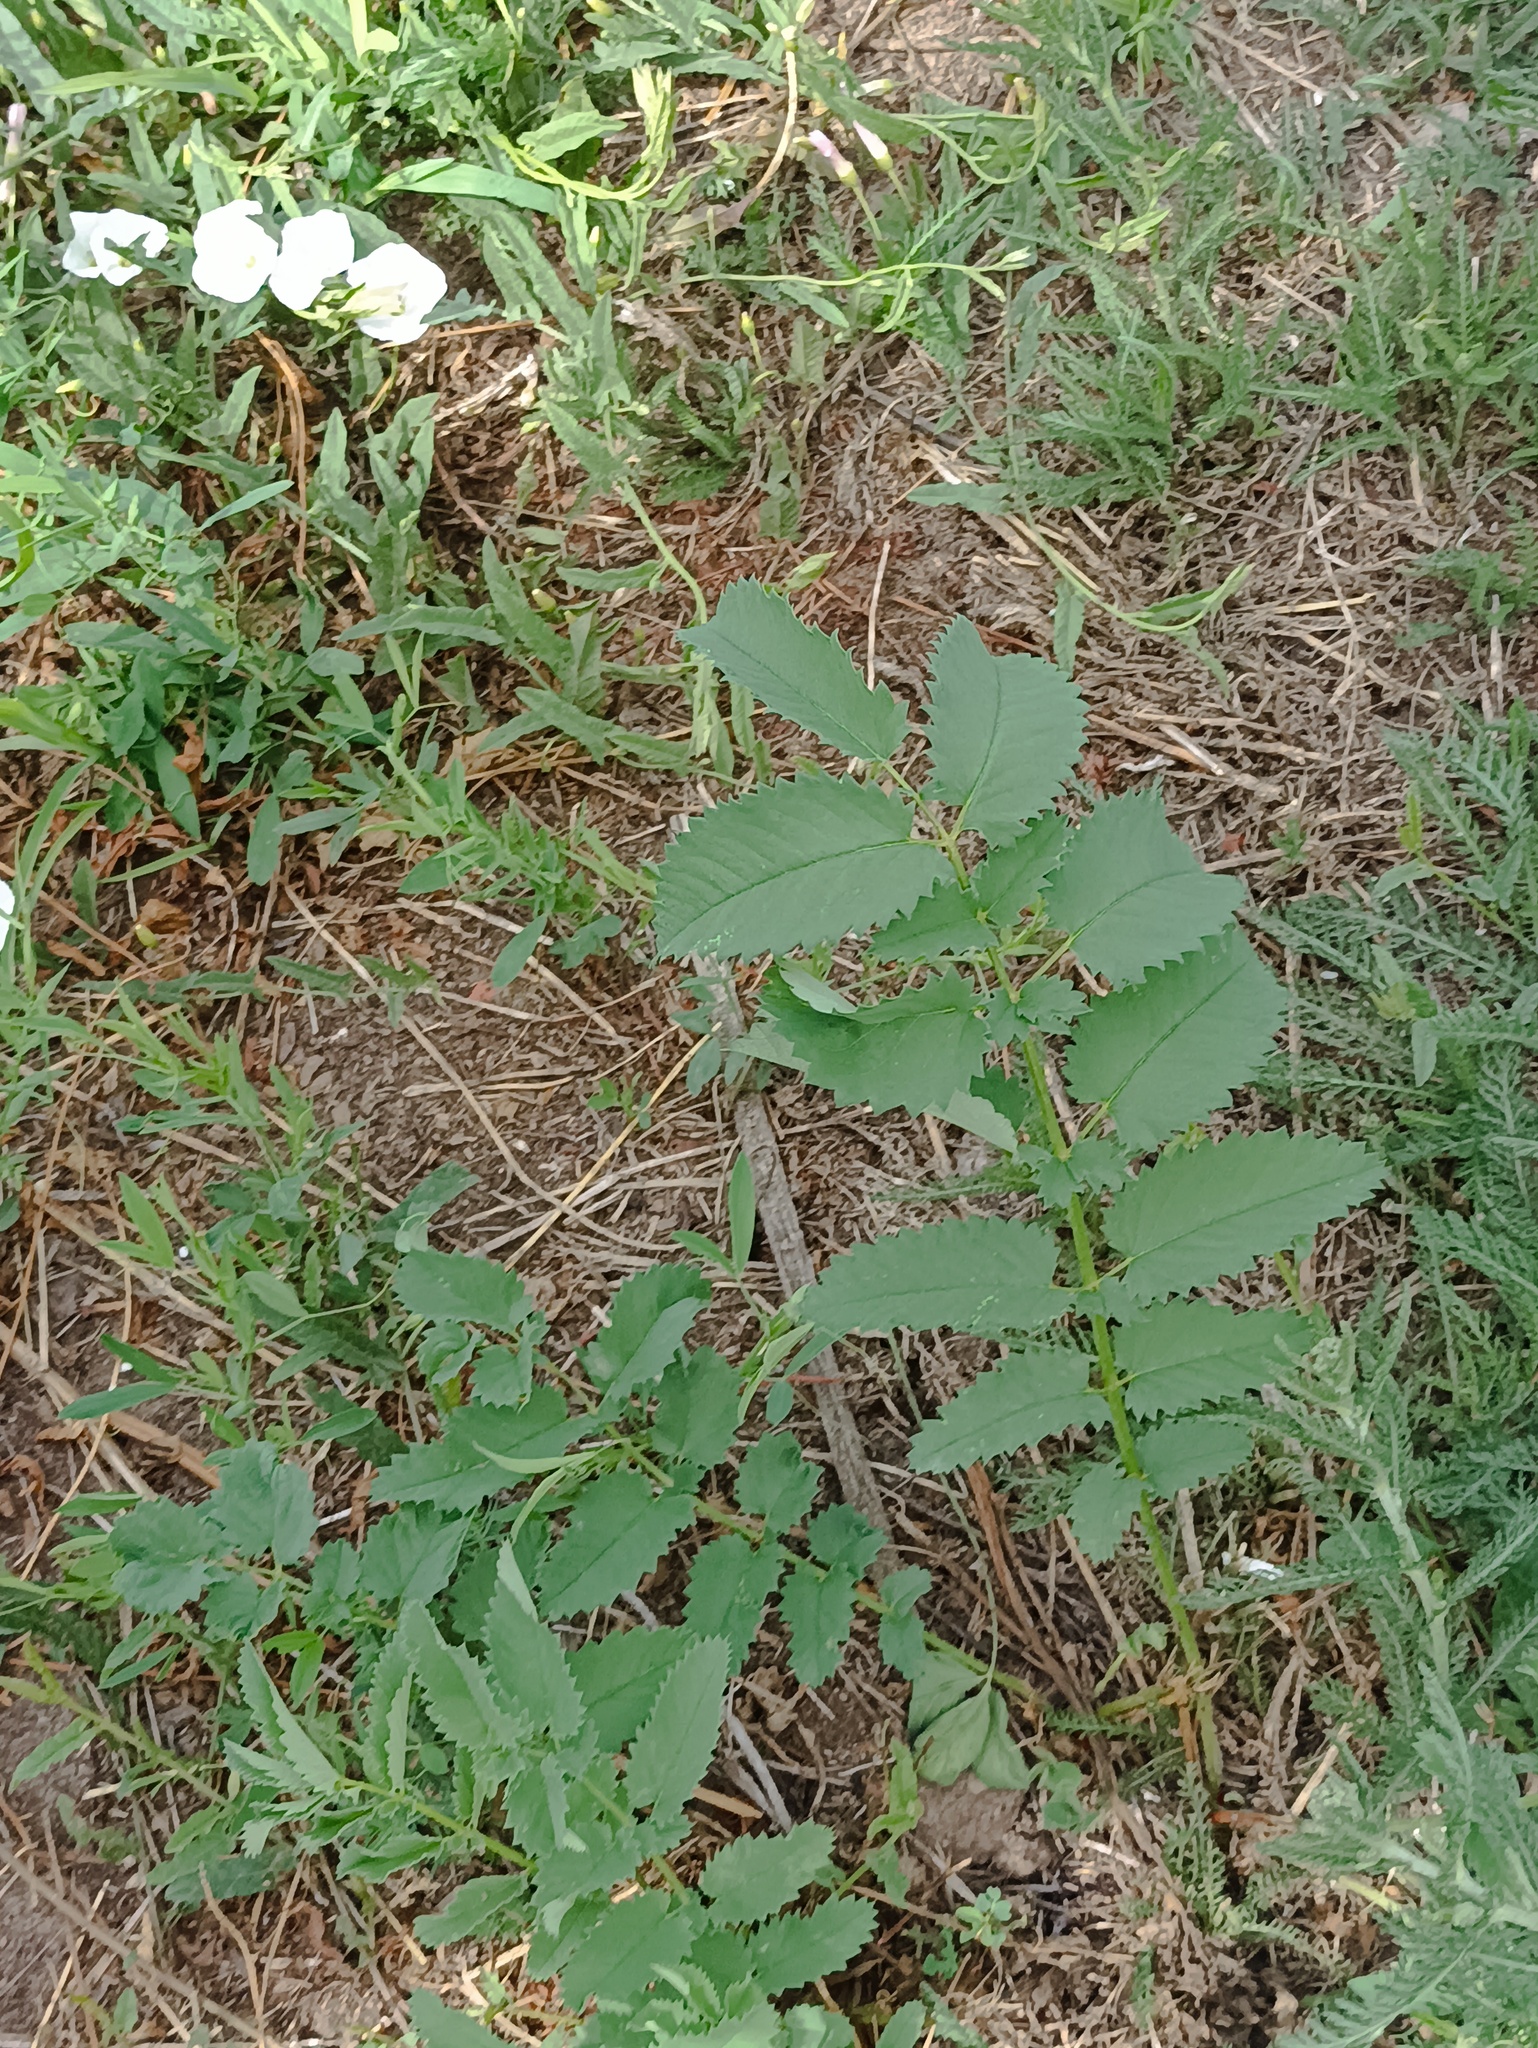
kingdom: Plantae
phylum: Tracheophyta
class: Magnoliopsida
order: Rosales
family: Rosaceae
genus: Sanguisorba
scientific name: Sanguisorba officinalis
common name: Great burnet
